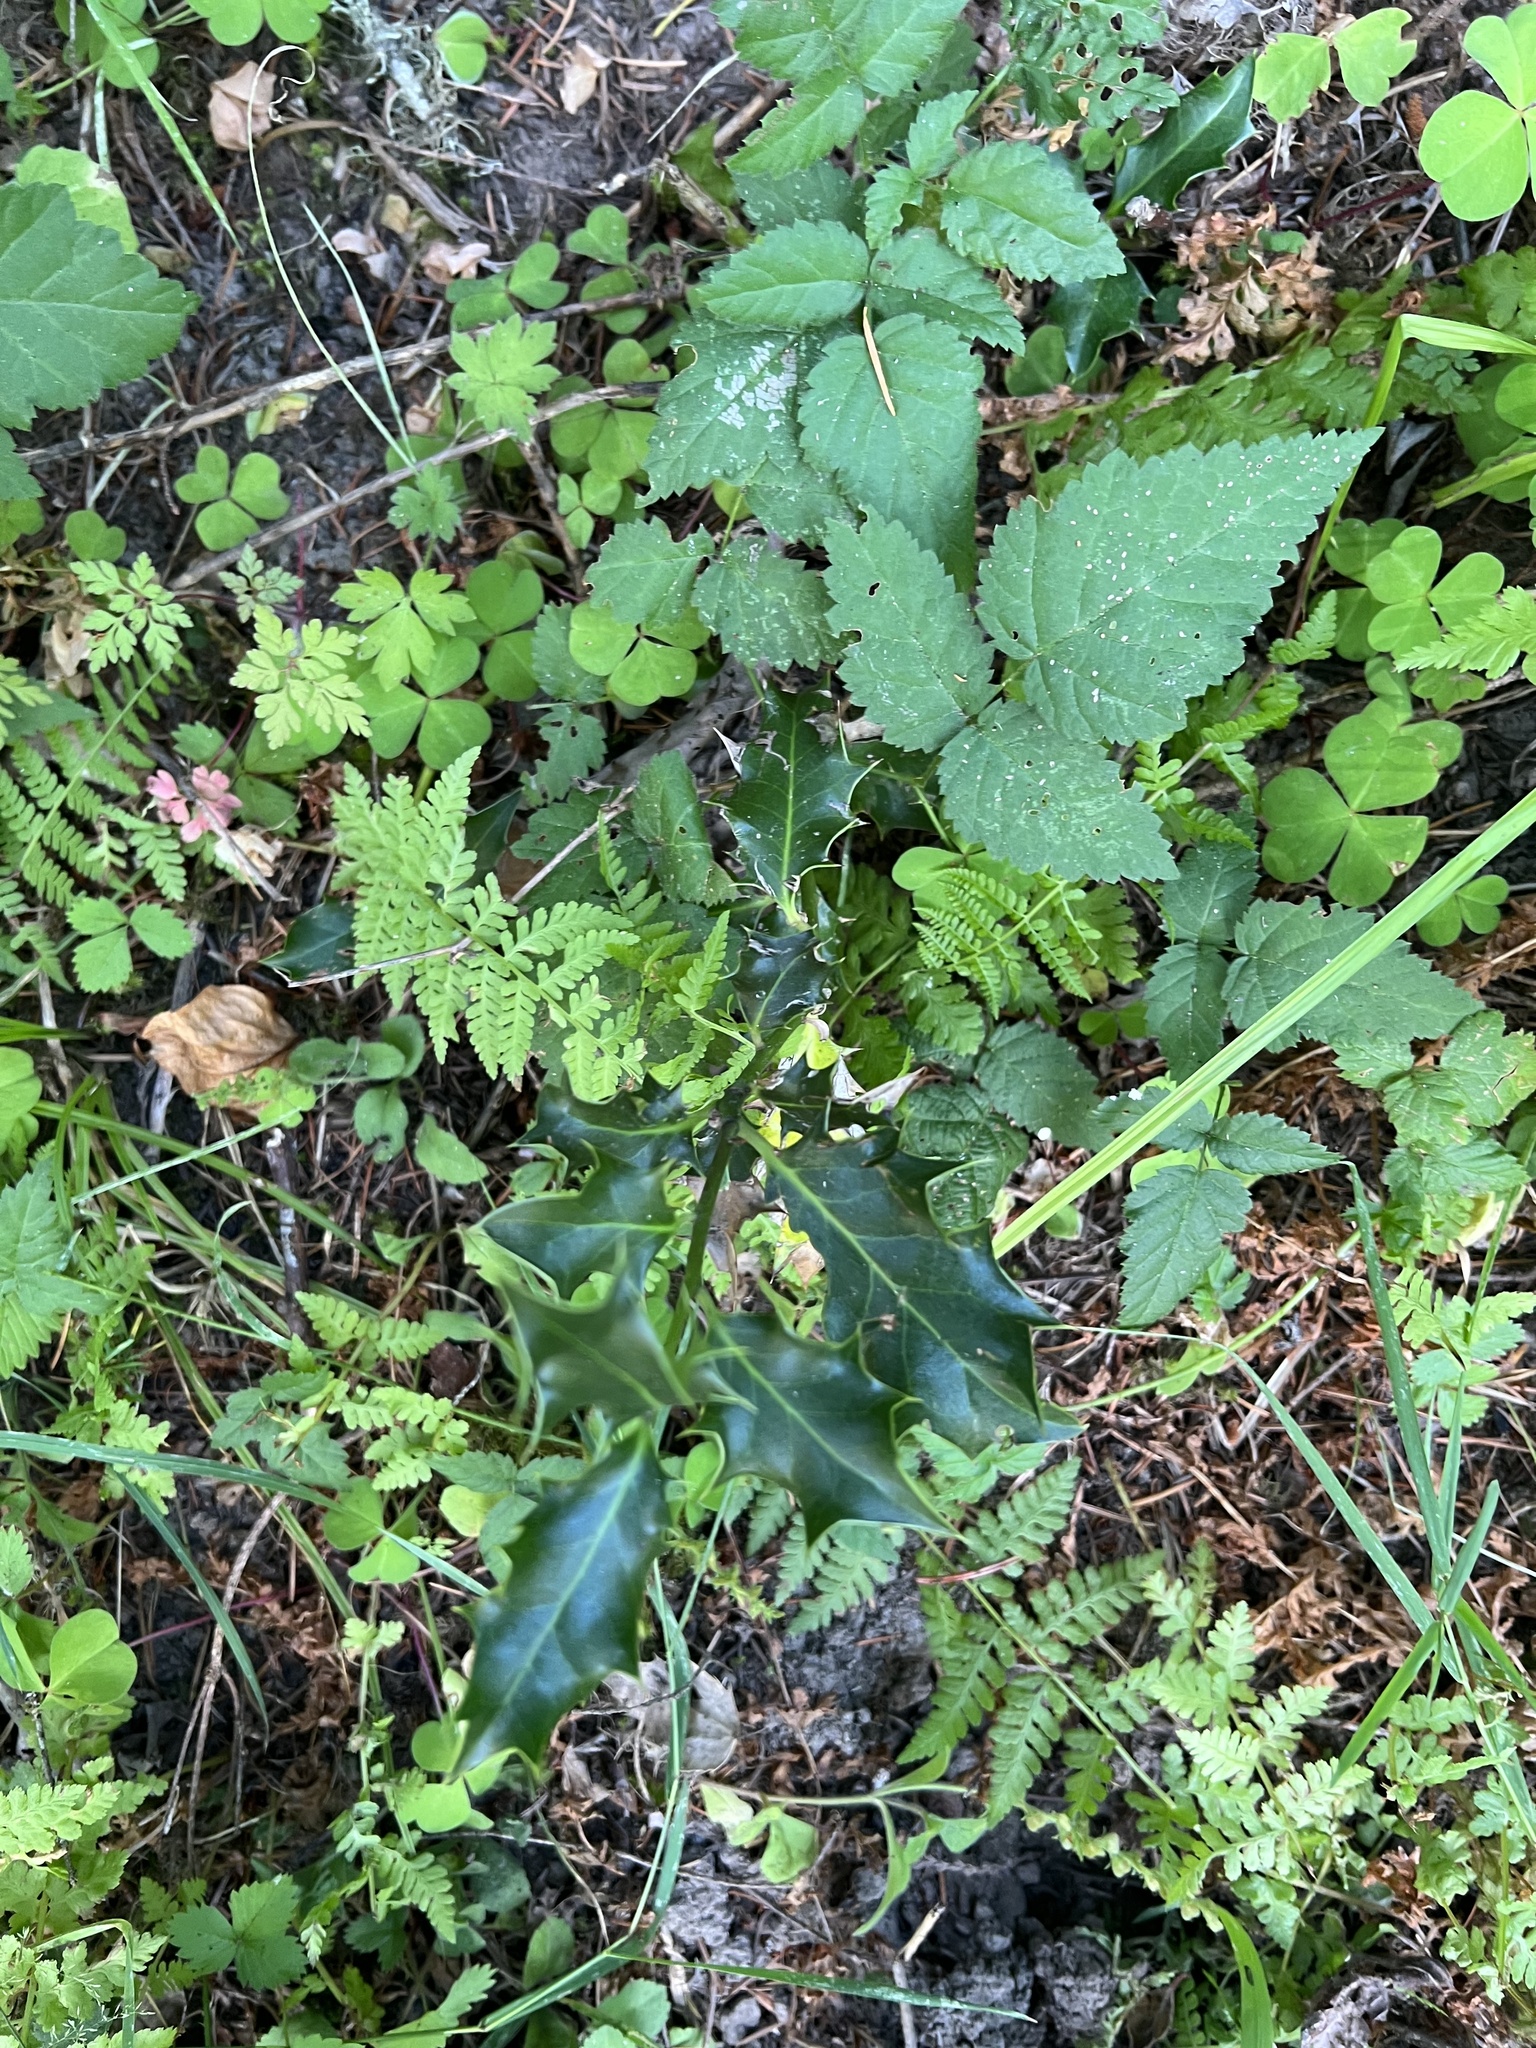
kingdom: Plantae
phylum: Tracheophyta
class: Magnoliopsida
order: Aquifoliales
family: Aquifoliaceae
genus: Ilex
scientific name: Ilex aquifolium
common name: English holly
